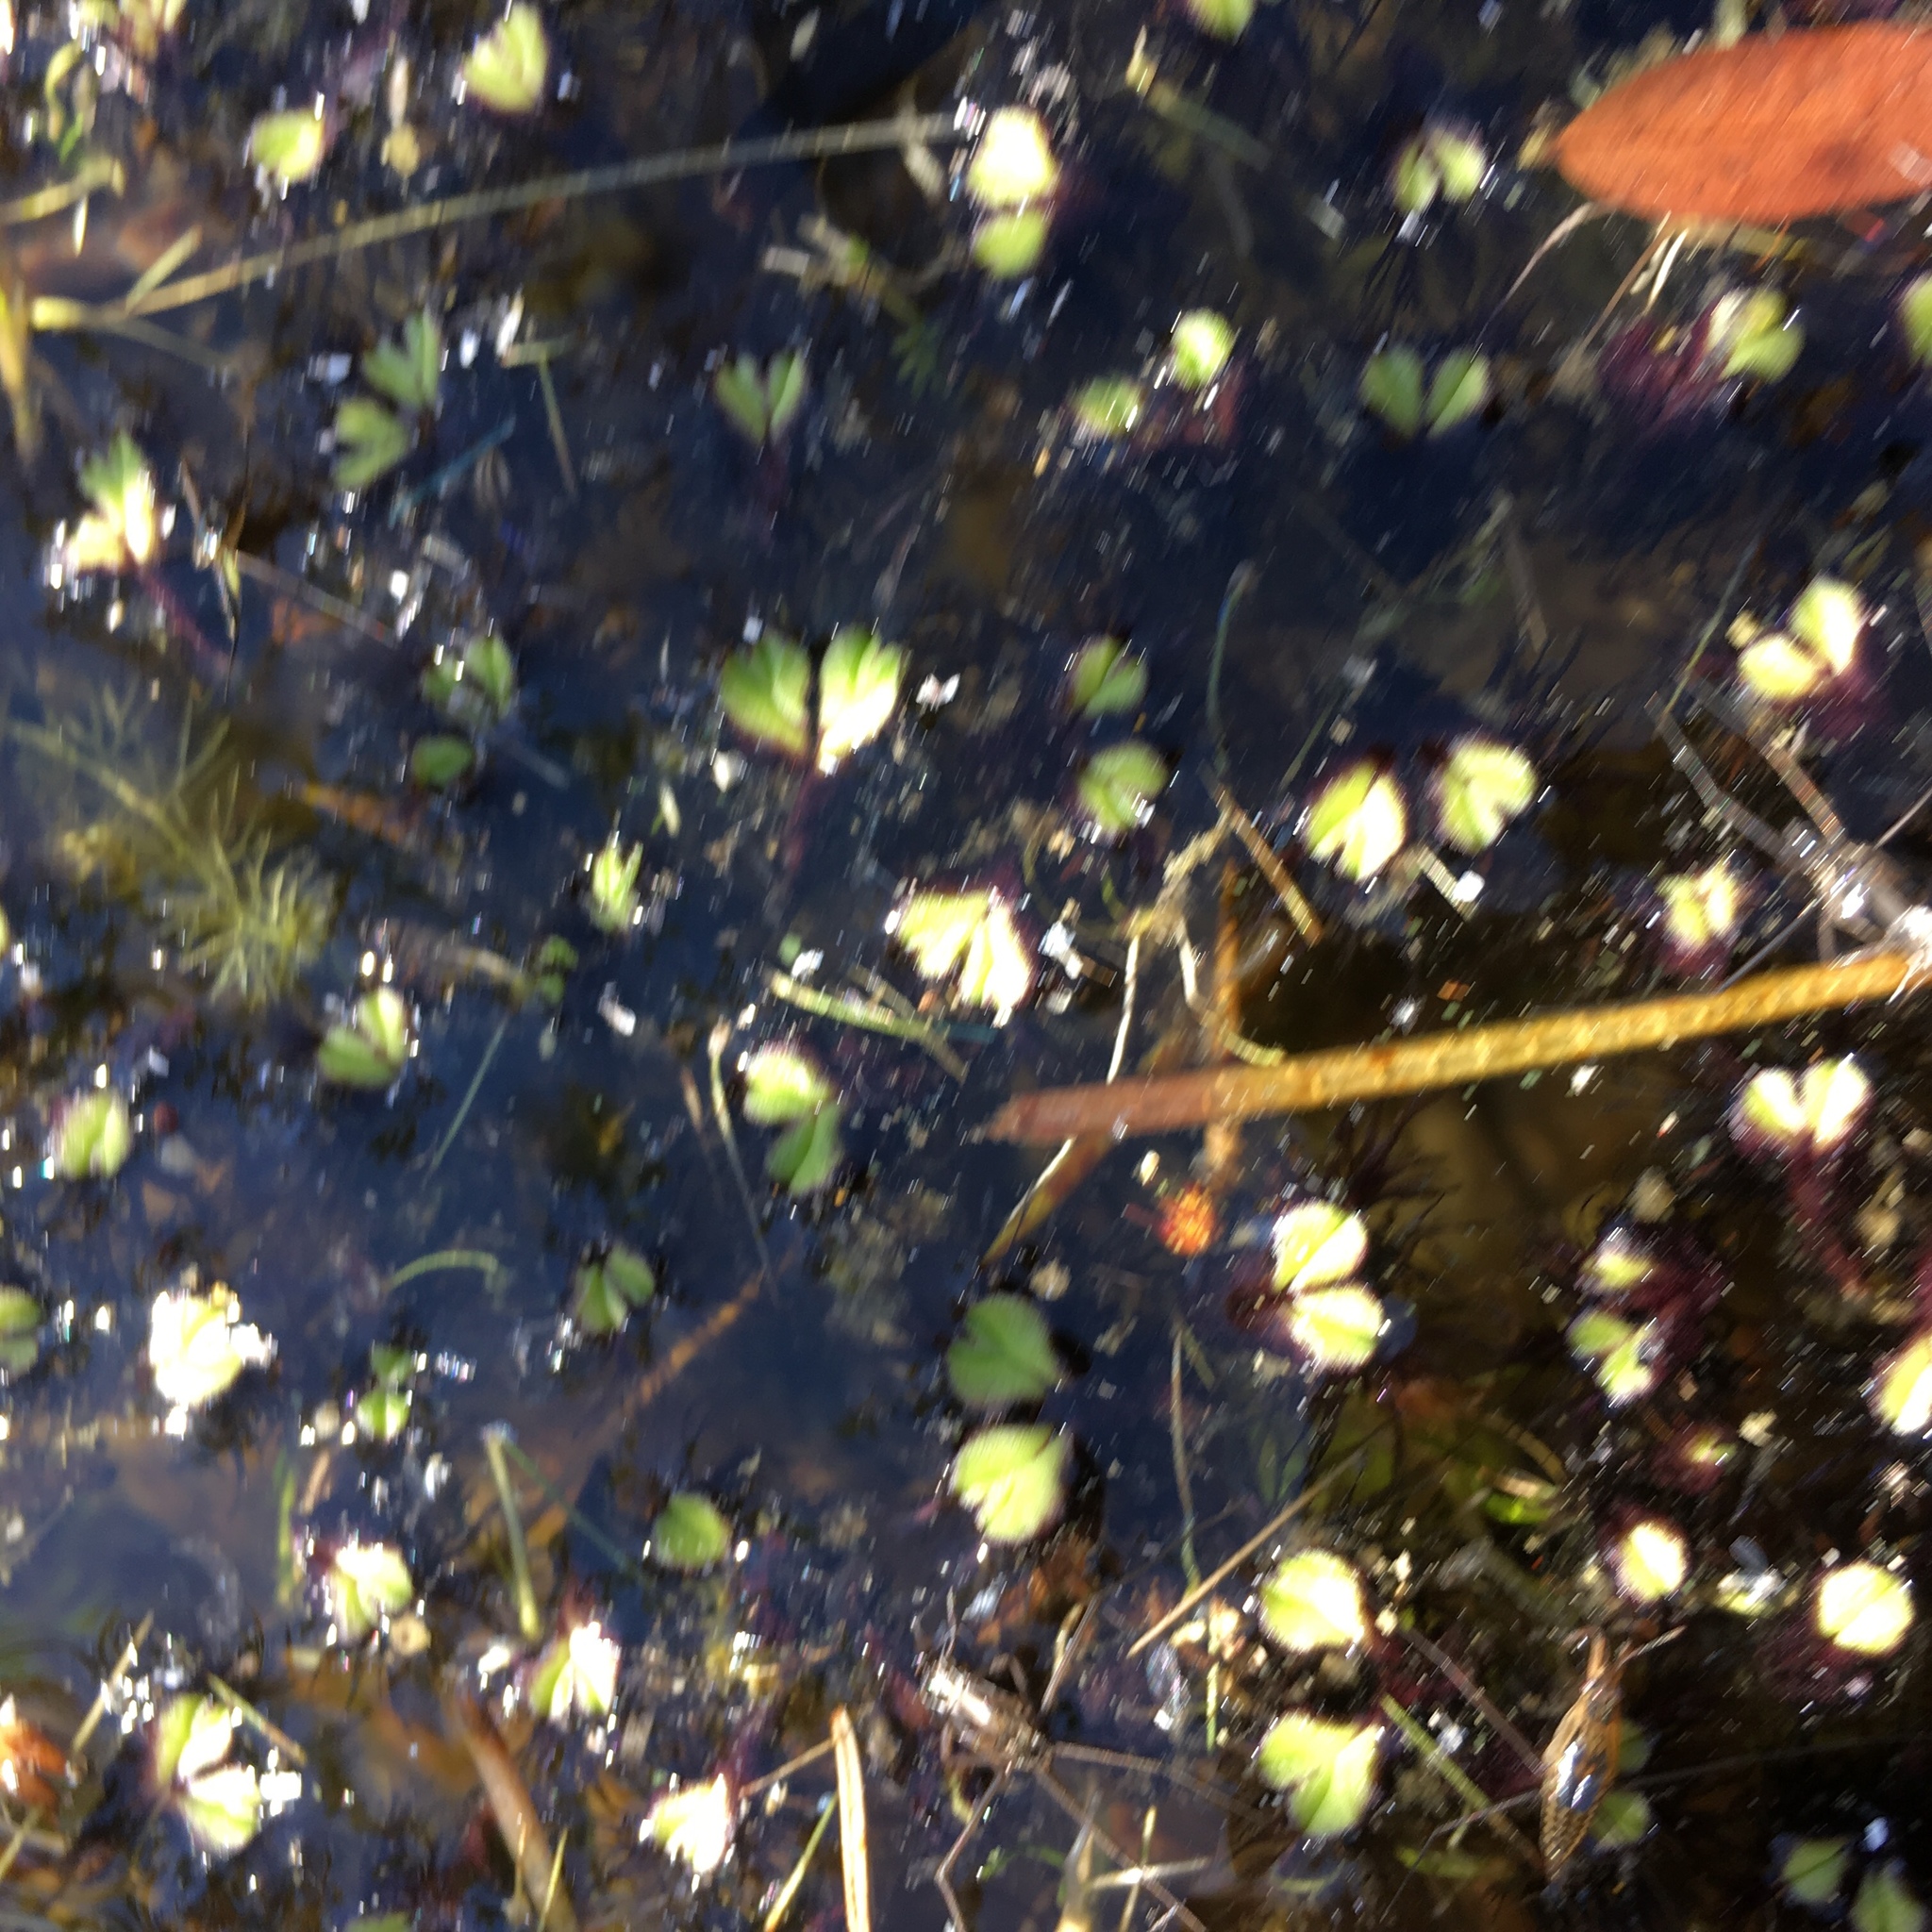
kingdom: Plantae
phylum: Marchantiophyta
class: Marchantiopsida
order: Marchantiales
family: Ricciaceae
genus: Ricciocarpos
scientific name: Ricciocarpos natans
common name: Purple-fringed liverwort
